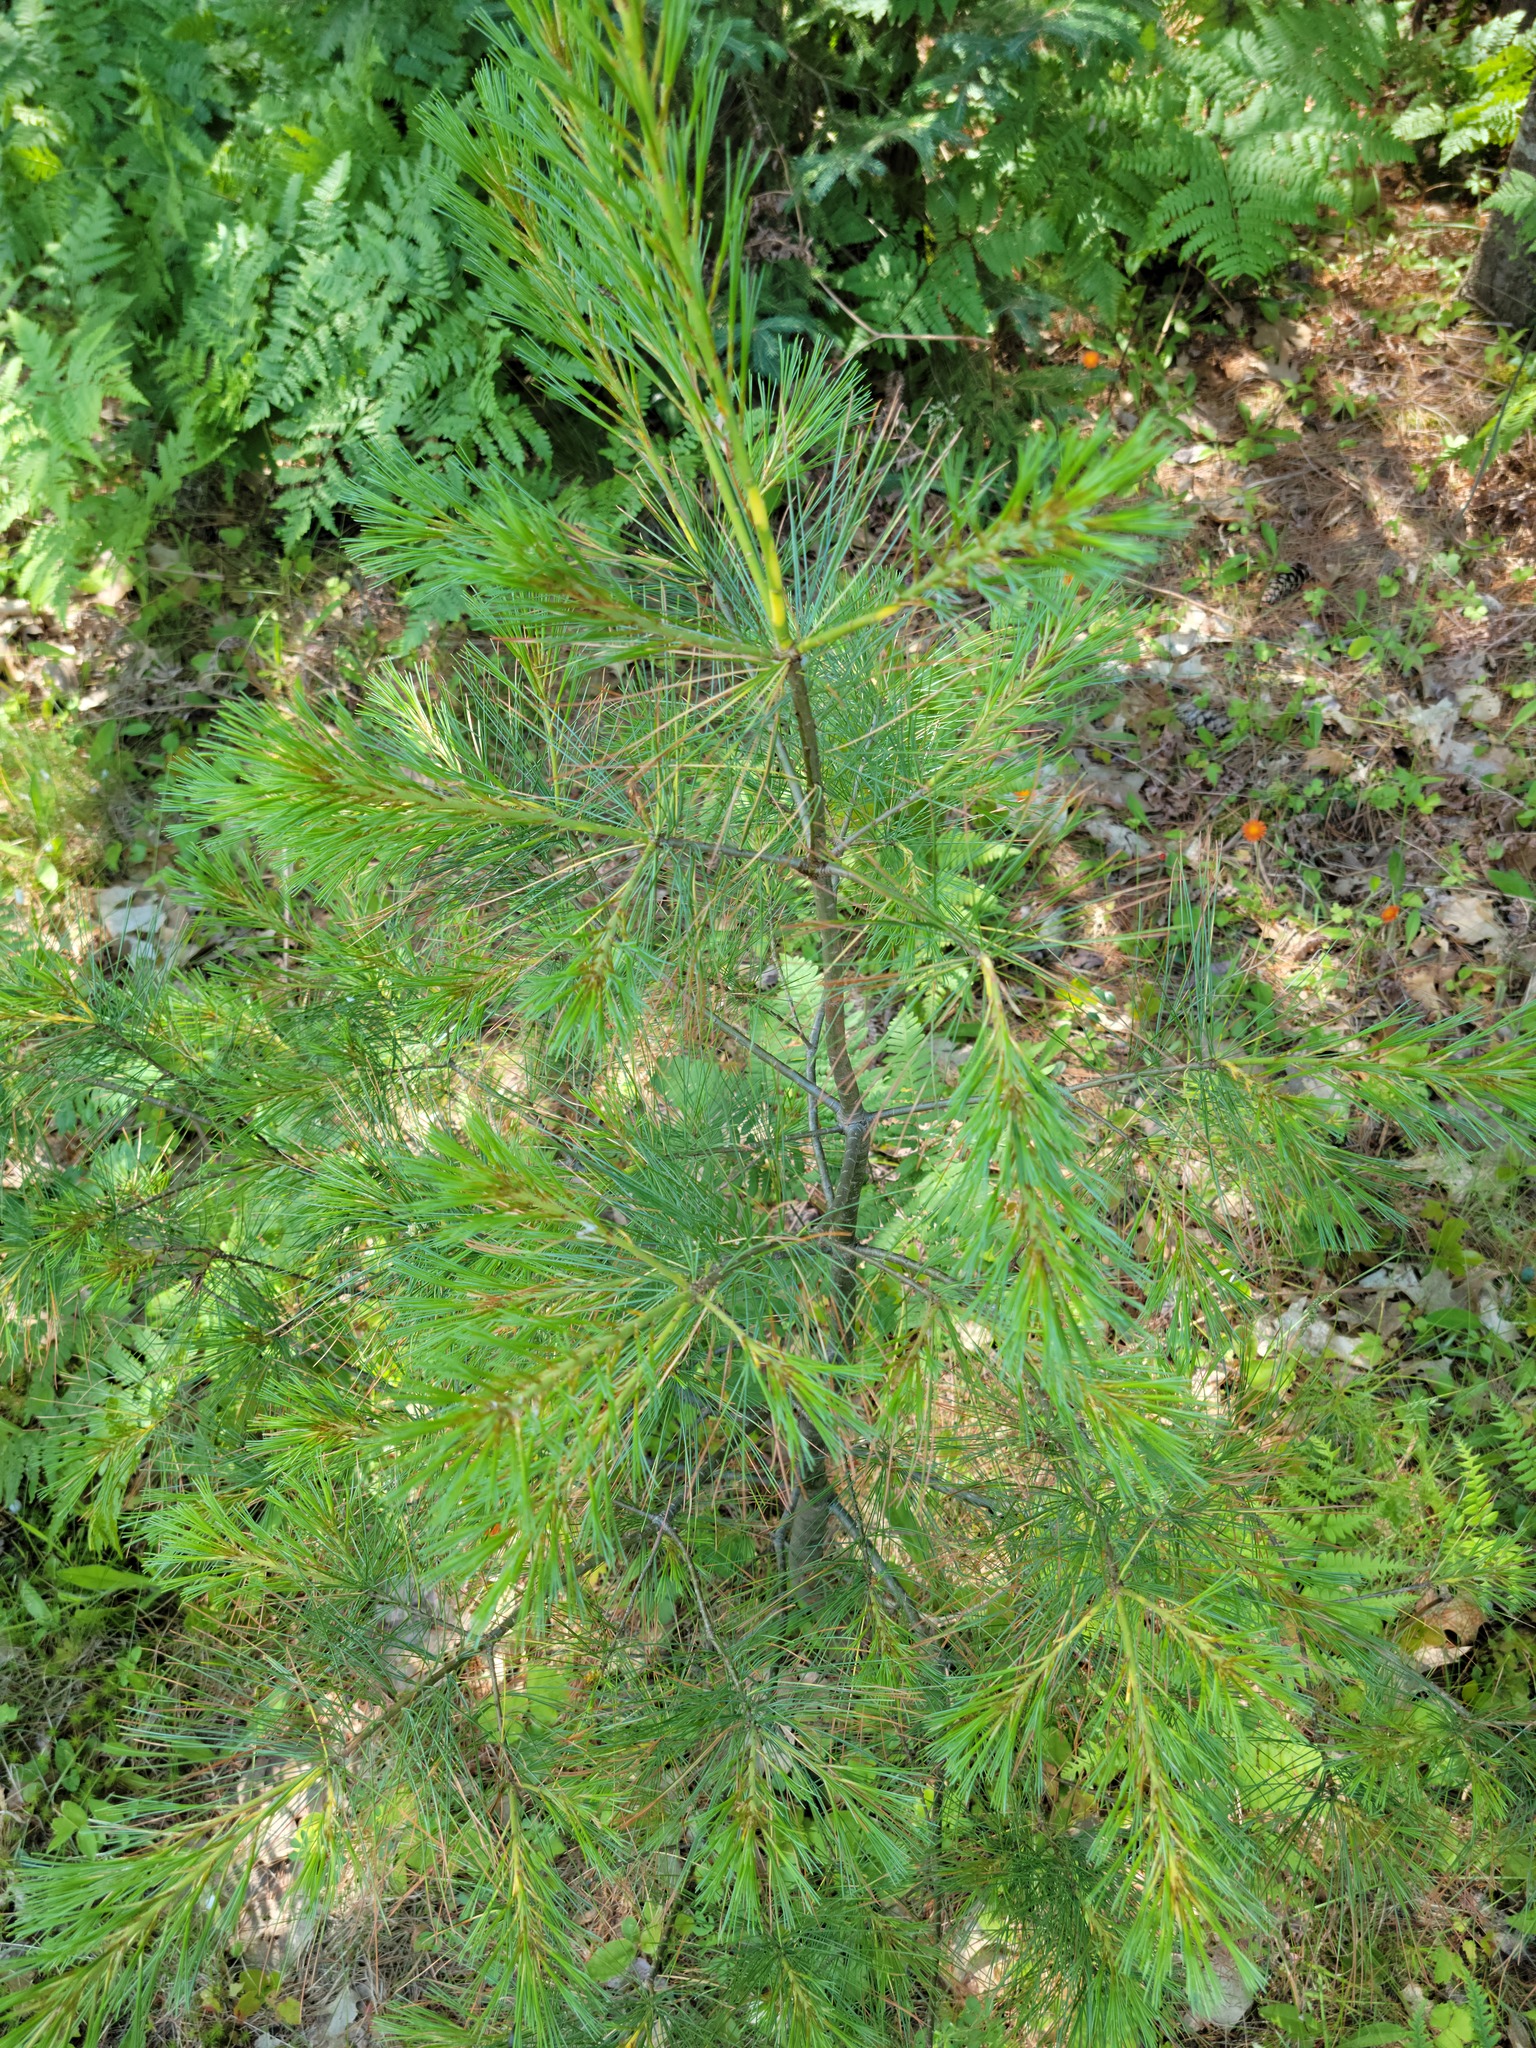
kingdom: Plantae
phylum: Tracheophyta
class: Pinopsida
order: Pinales
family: Pinaceae
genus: Pinus
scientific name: Pinus strobus
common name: Weymouth pine
